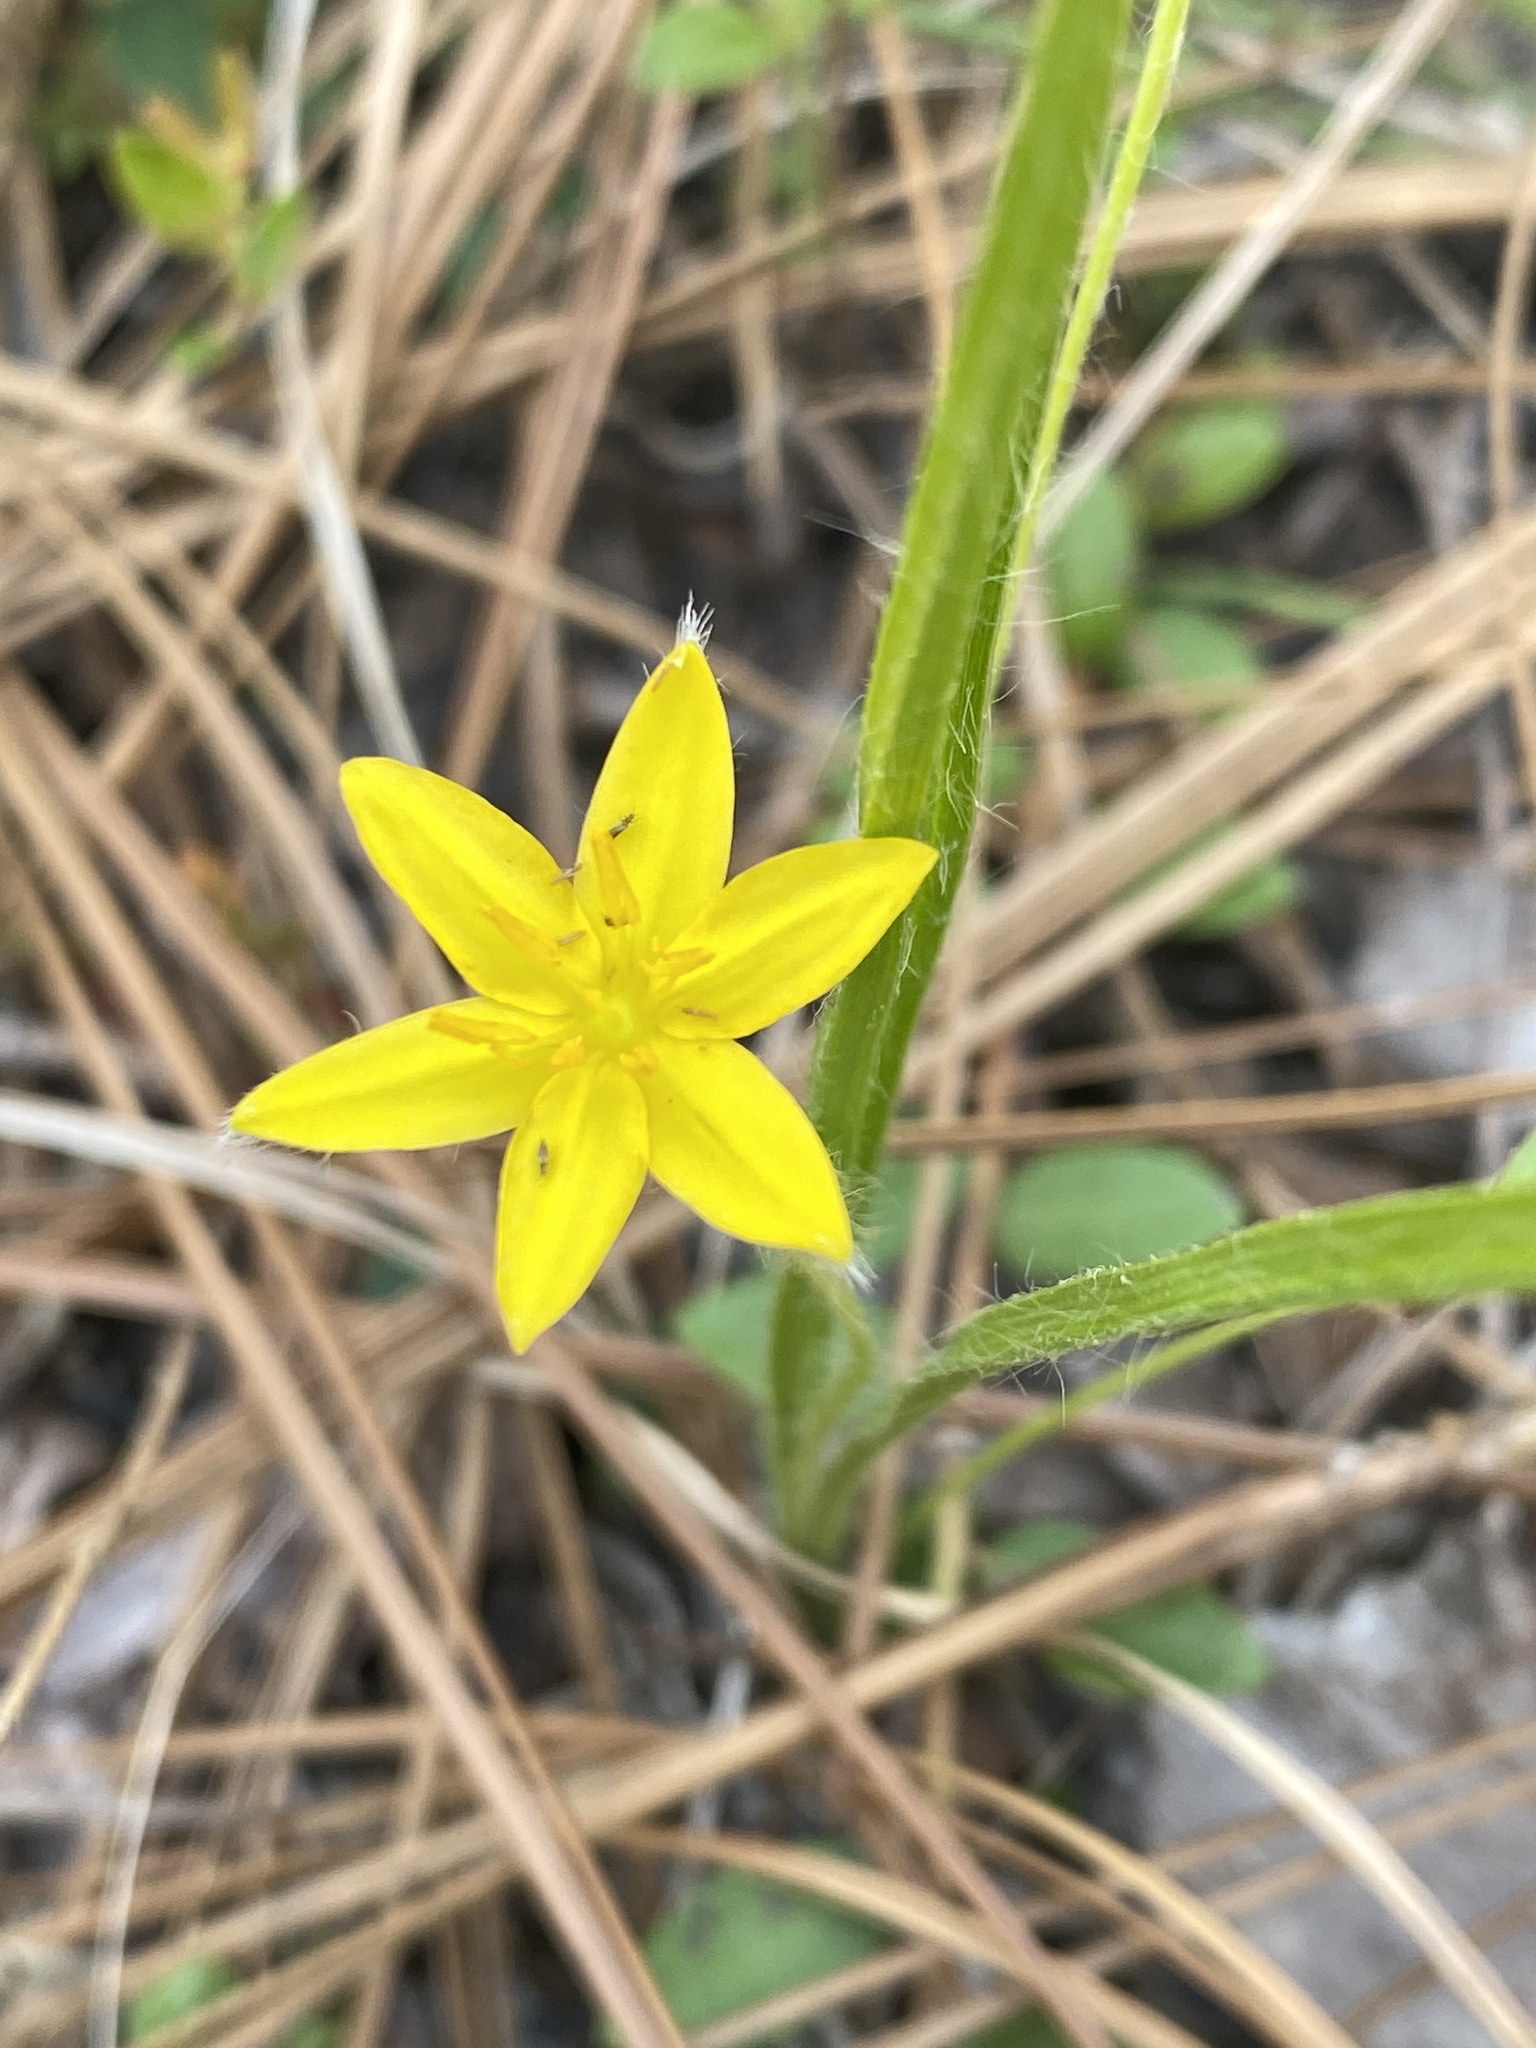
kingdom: Plantae
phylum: Tracheophyta
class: Liliopsida
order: Asparagales
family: Hypoxidaceae
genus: Hypoxis
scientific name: Hypoxis hirsuta
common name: Common goldstar
